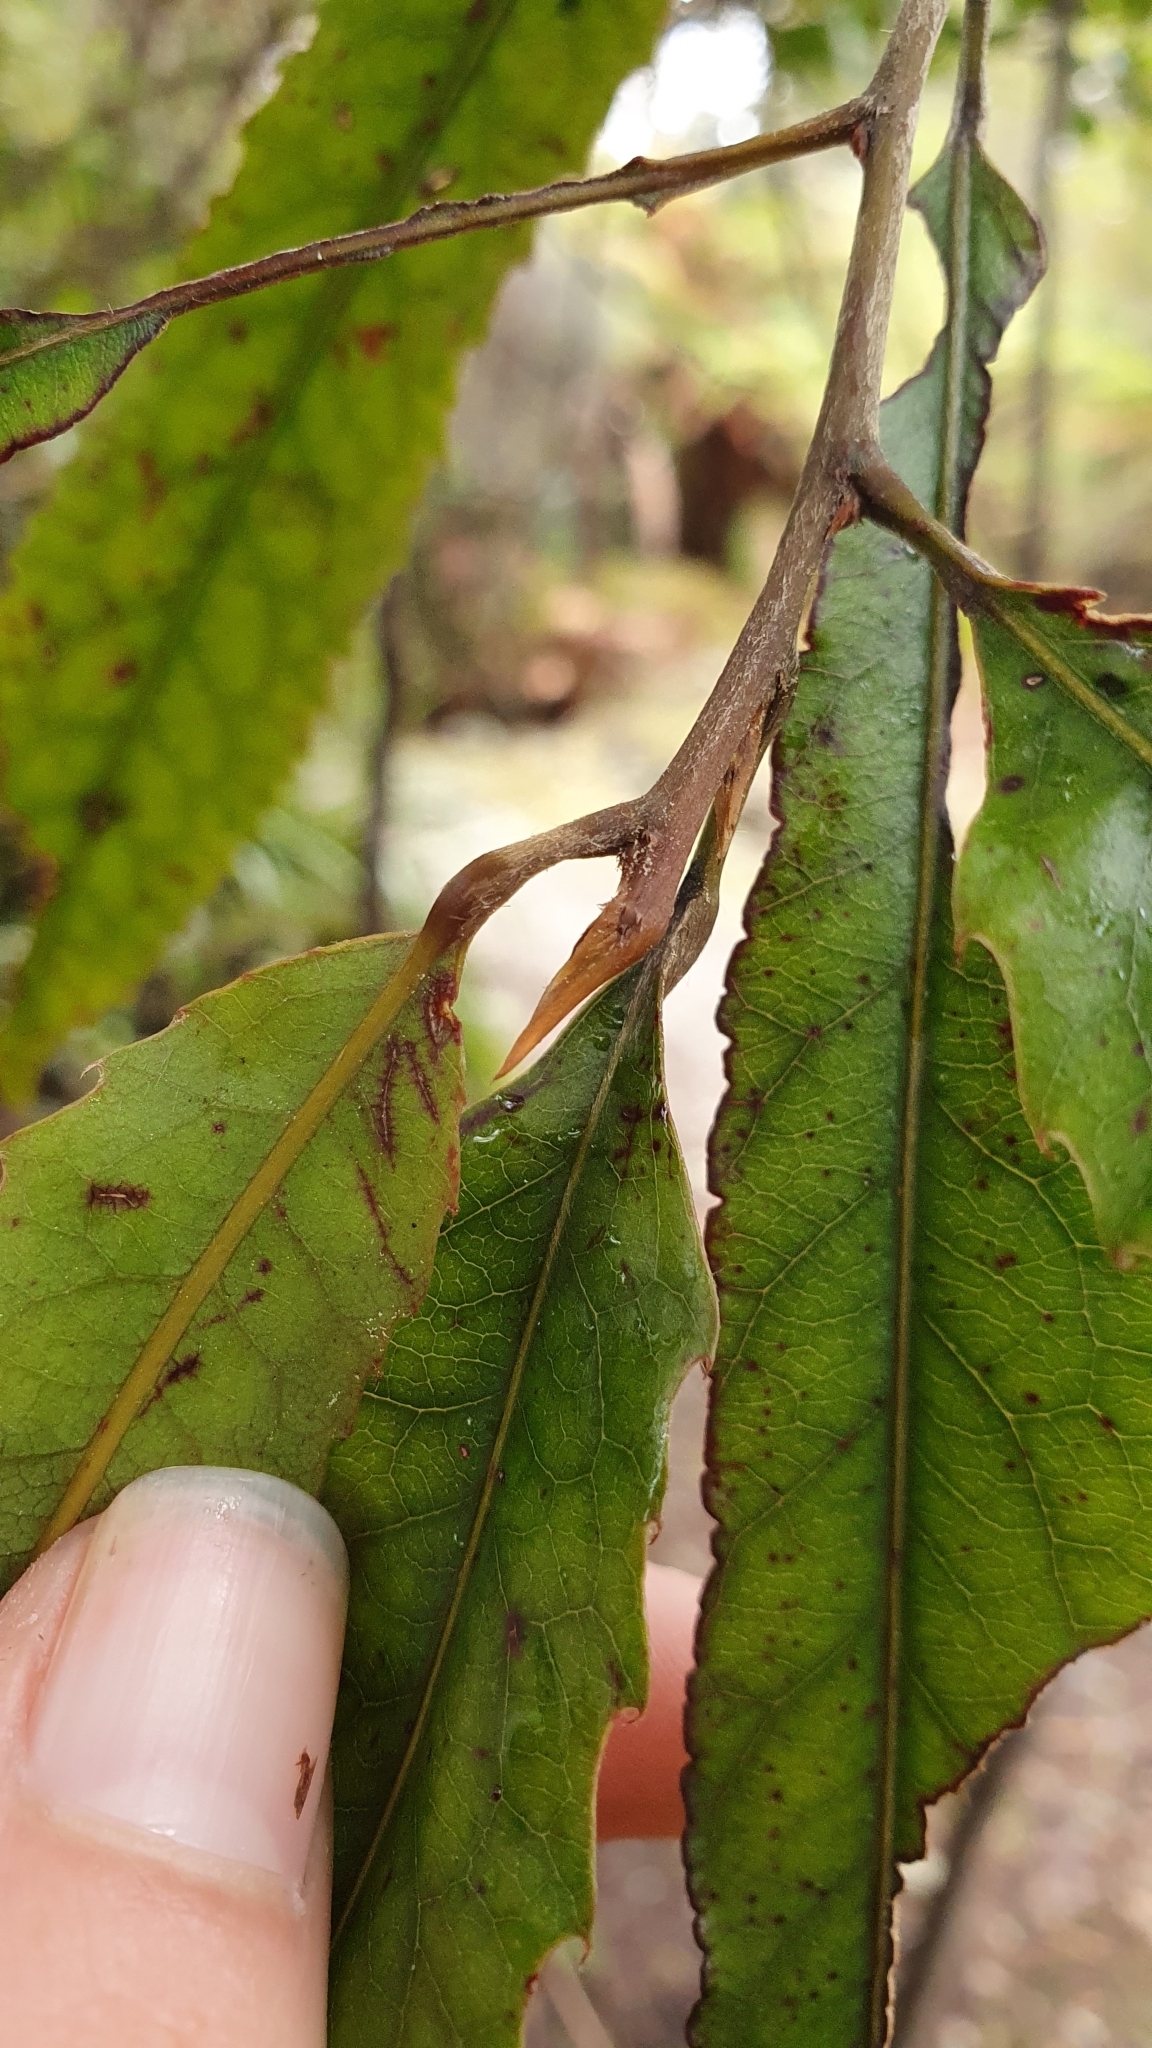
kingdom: Plantae
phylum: Tracheophyta
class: Magnoliopsida
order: Oxalidales
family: Elaeocarpaceae
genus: Elaeocarpus
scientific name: Elaeocarpus dentatus
